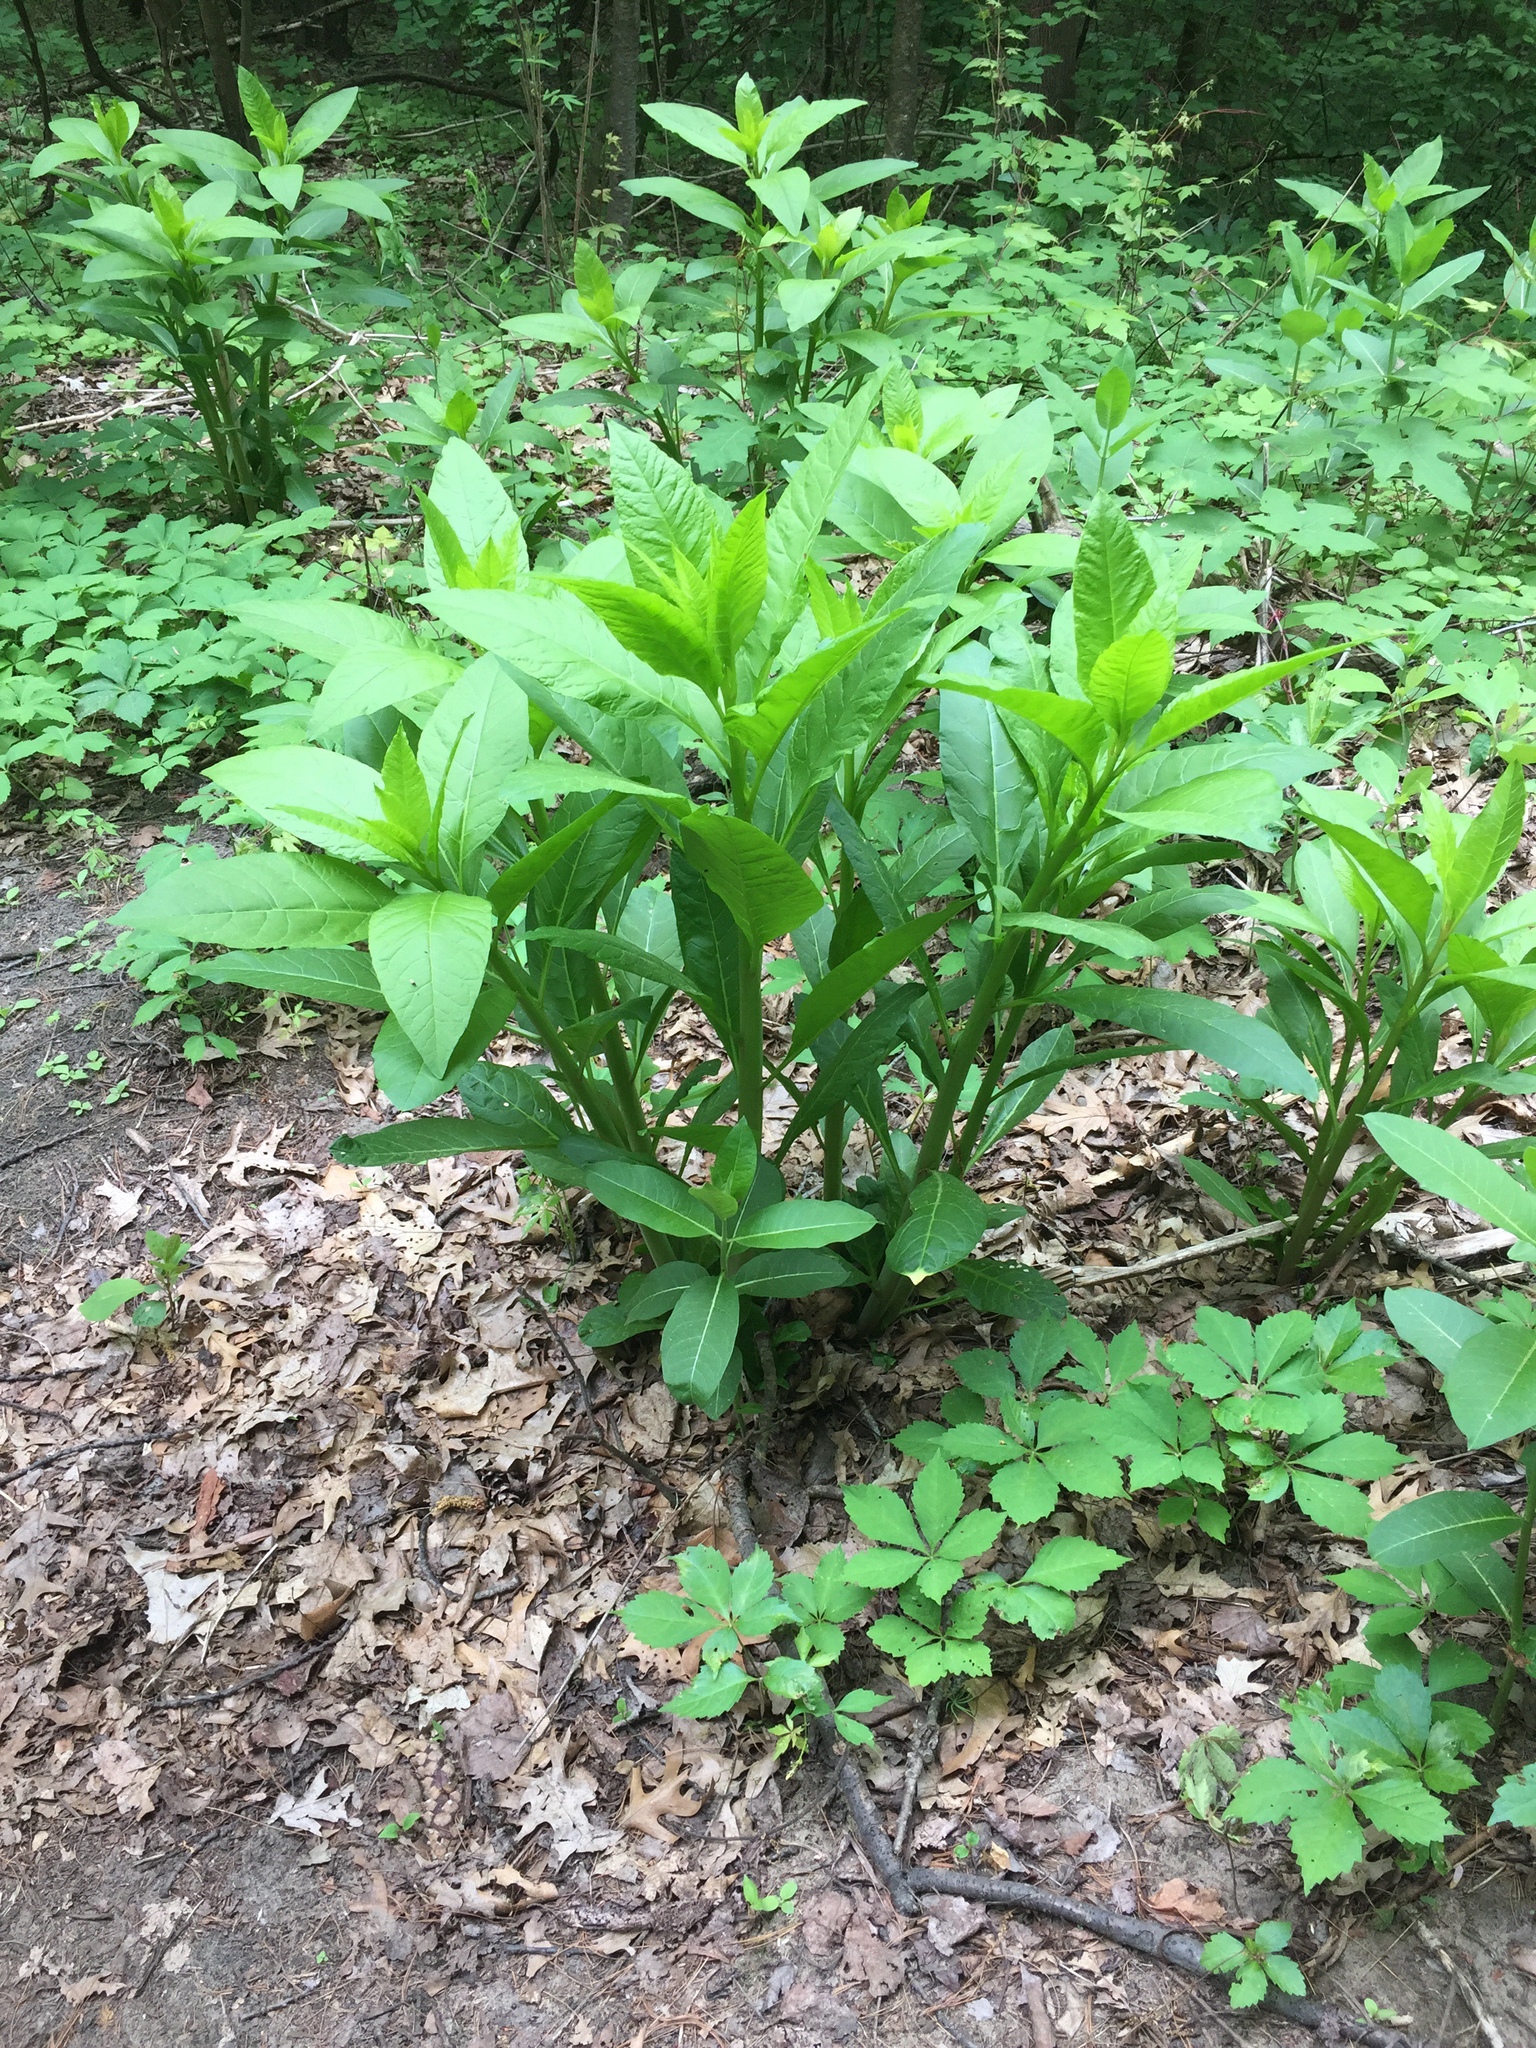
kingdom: Plantae
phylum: Tracheophyta
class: Magnoliopsida
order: Caryophyllales
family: Phytolaccaceae
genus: Phytolacca
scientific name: Phytolacca americana
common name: American pokeweed
